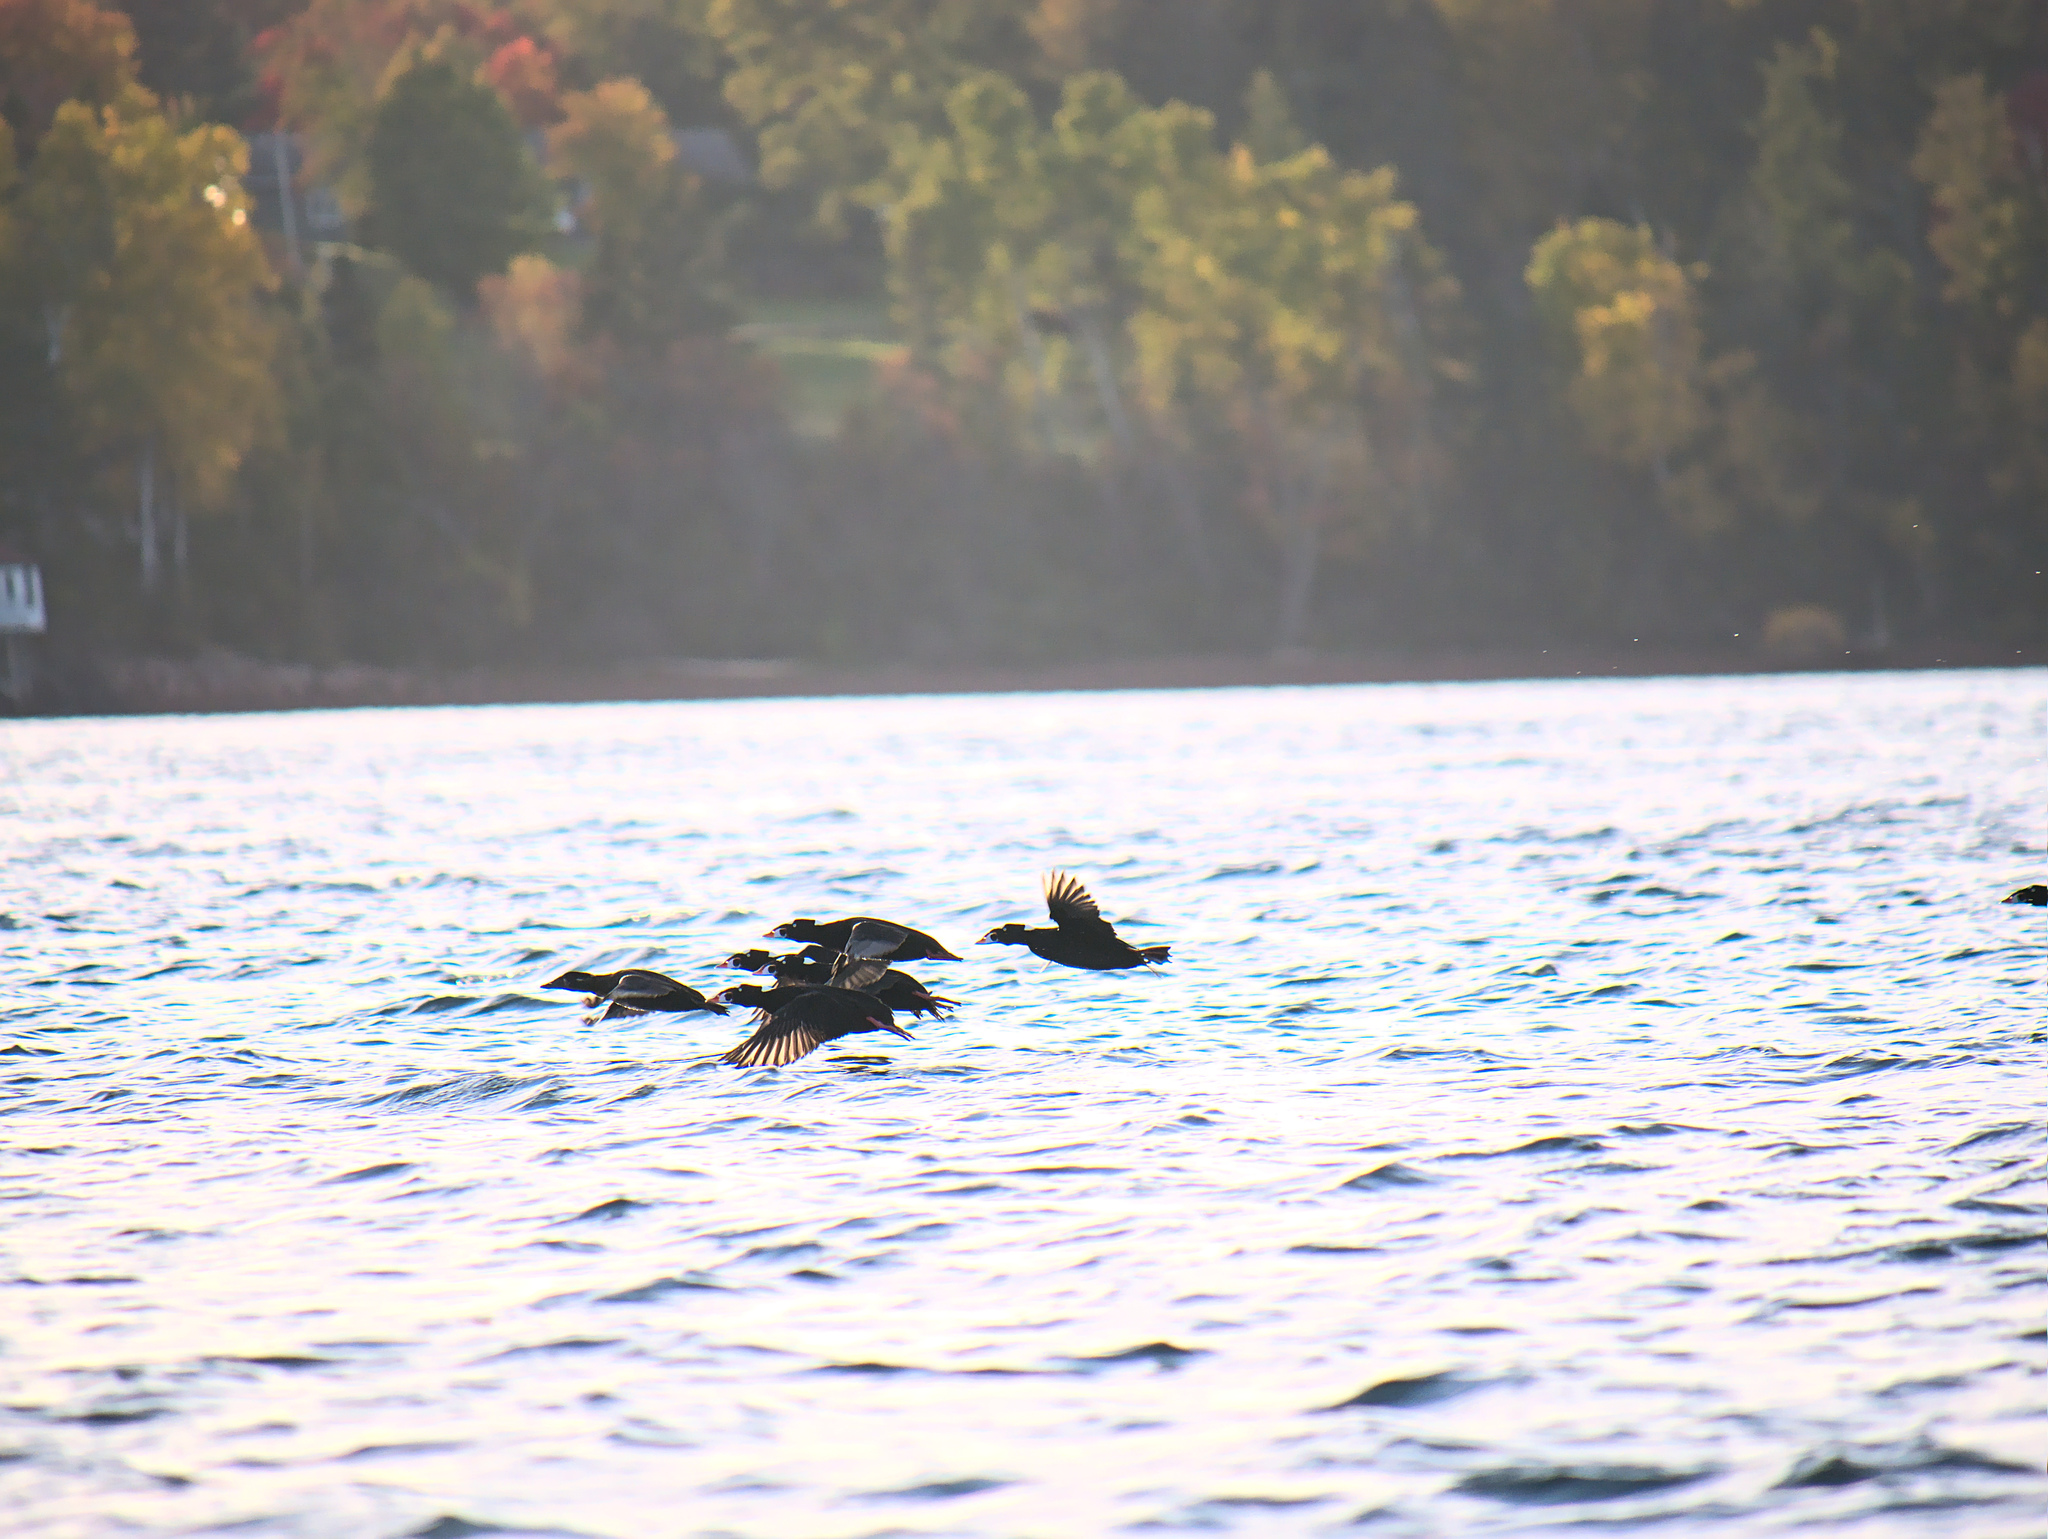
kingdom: Animalia
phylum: Chordata
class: Aves
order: Anseriformes
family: Anatidae
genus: Melanitta
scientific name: Melanitta perspicillata
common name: Surf scoter
